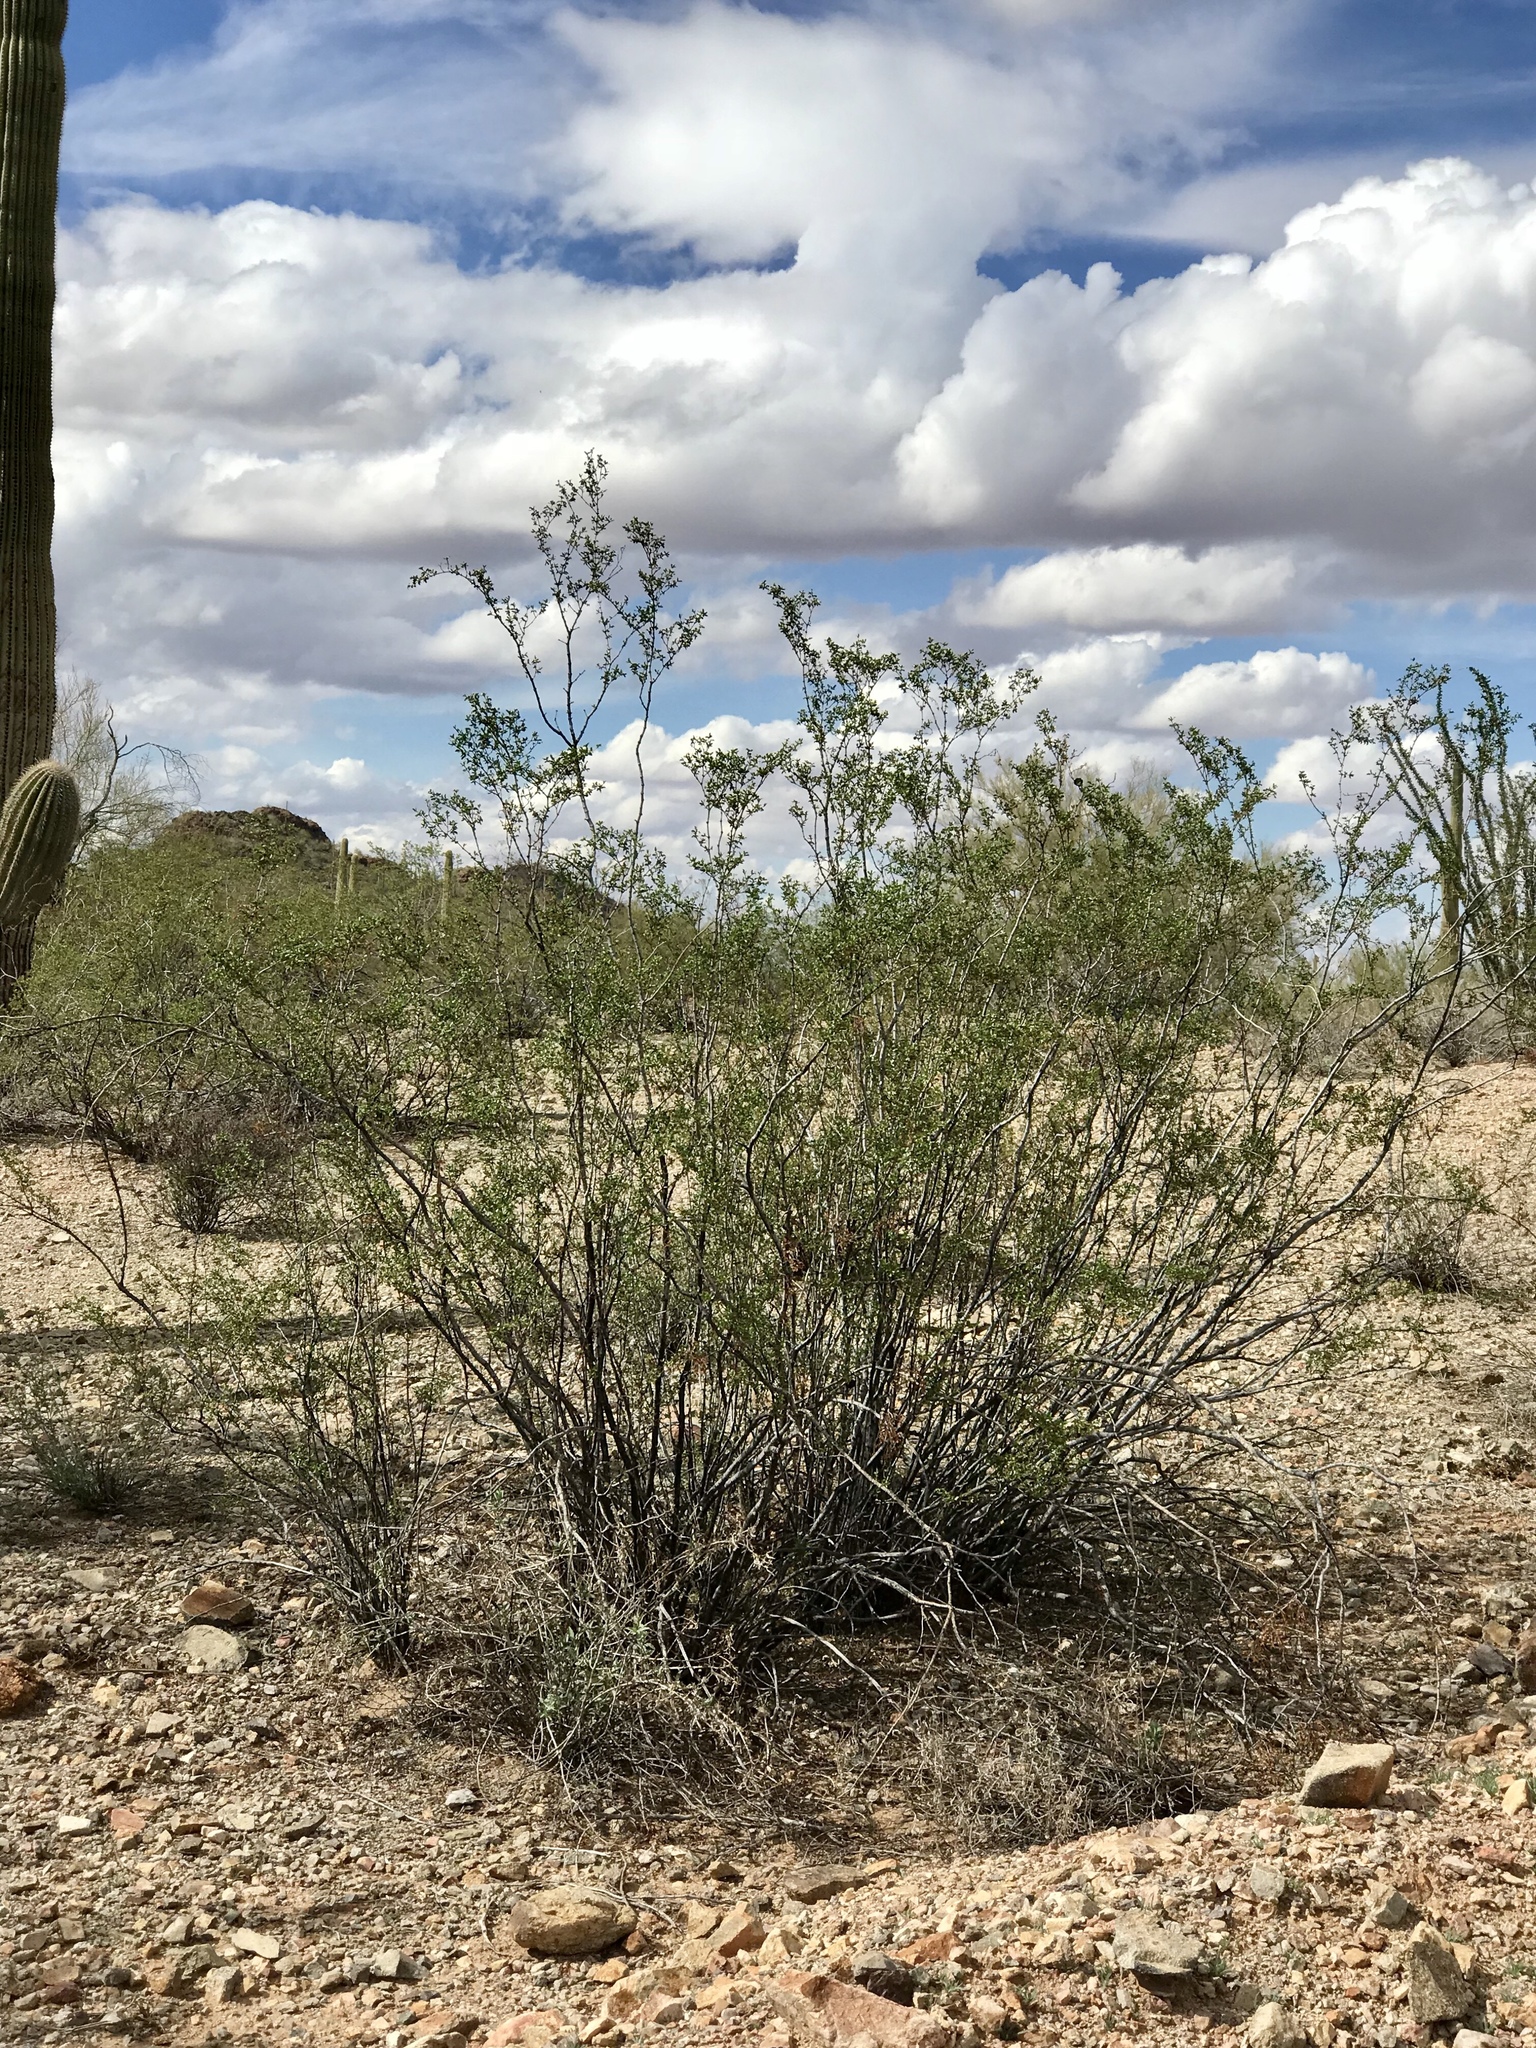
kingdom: Plantae
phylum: Tracheophyta
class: Magnoliopsida
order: Zygophyllales
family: Zygophyllaceae
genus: Larrea
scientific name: Larrea tridentata
